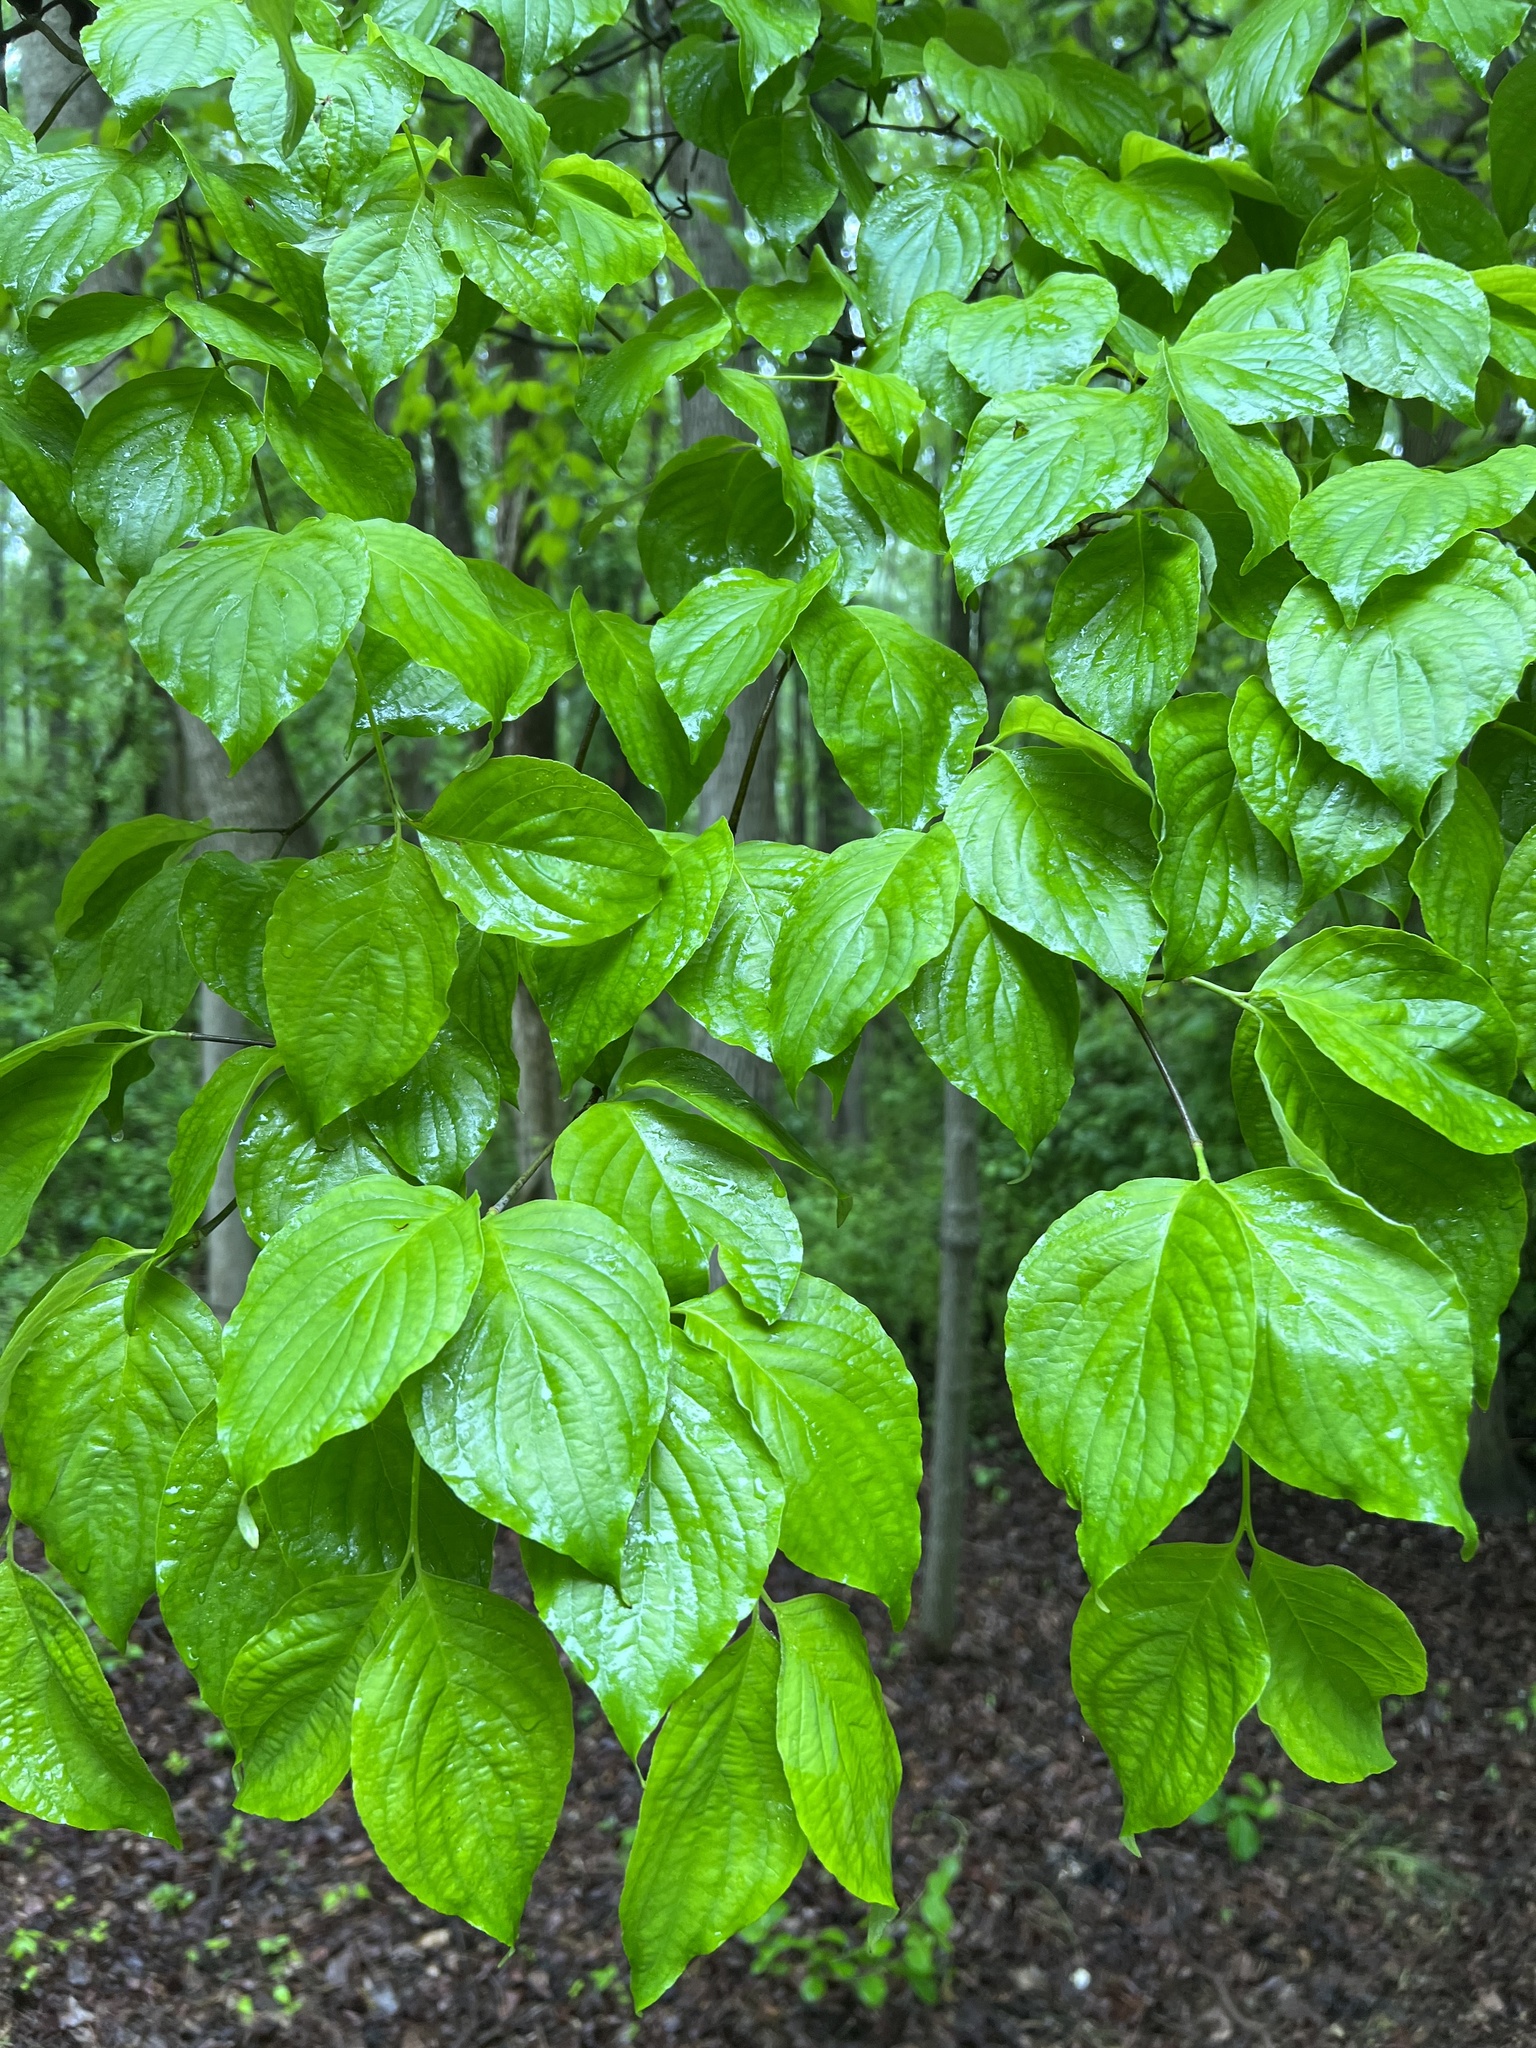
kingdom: Plantae
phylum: Tracheophyta
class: Magnoliopsida
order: Cornales
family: Cornaceae
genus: Cornus
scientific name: Cornus florida
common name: Flowering dogwood
